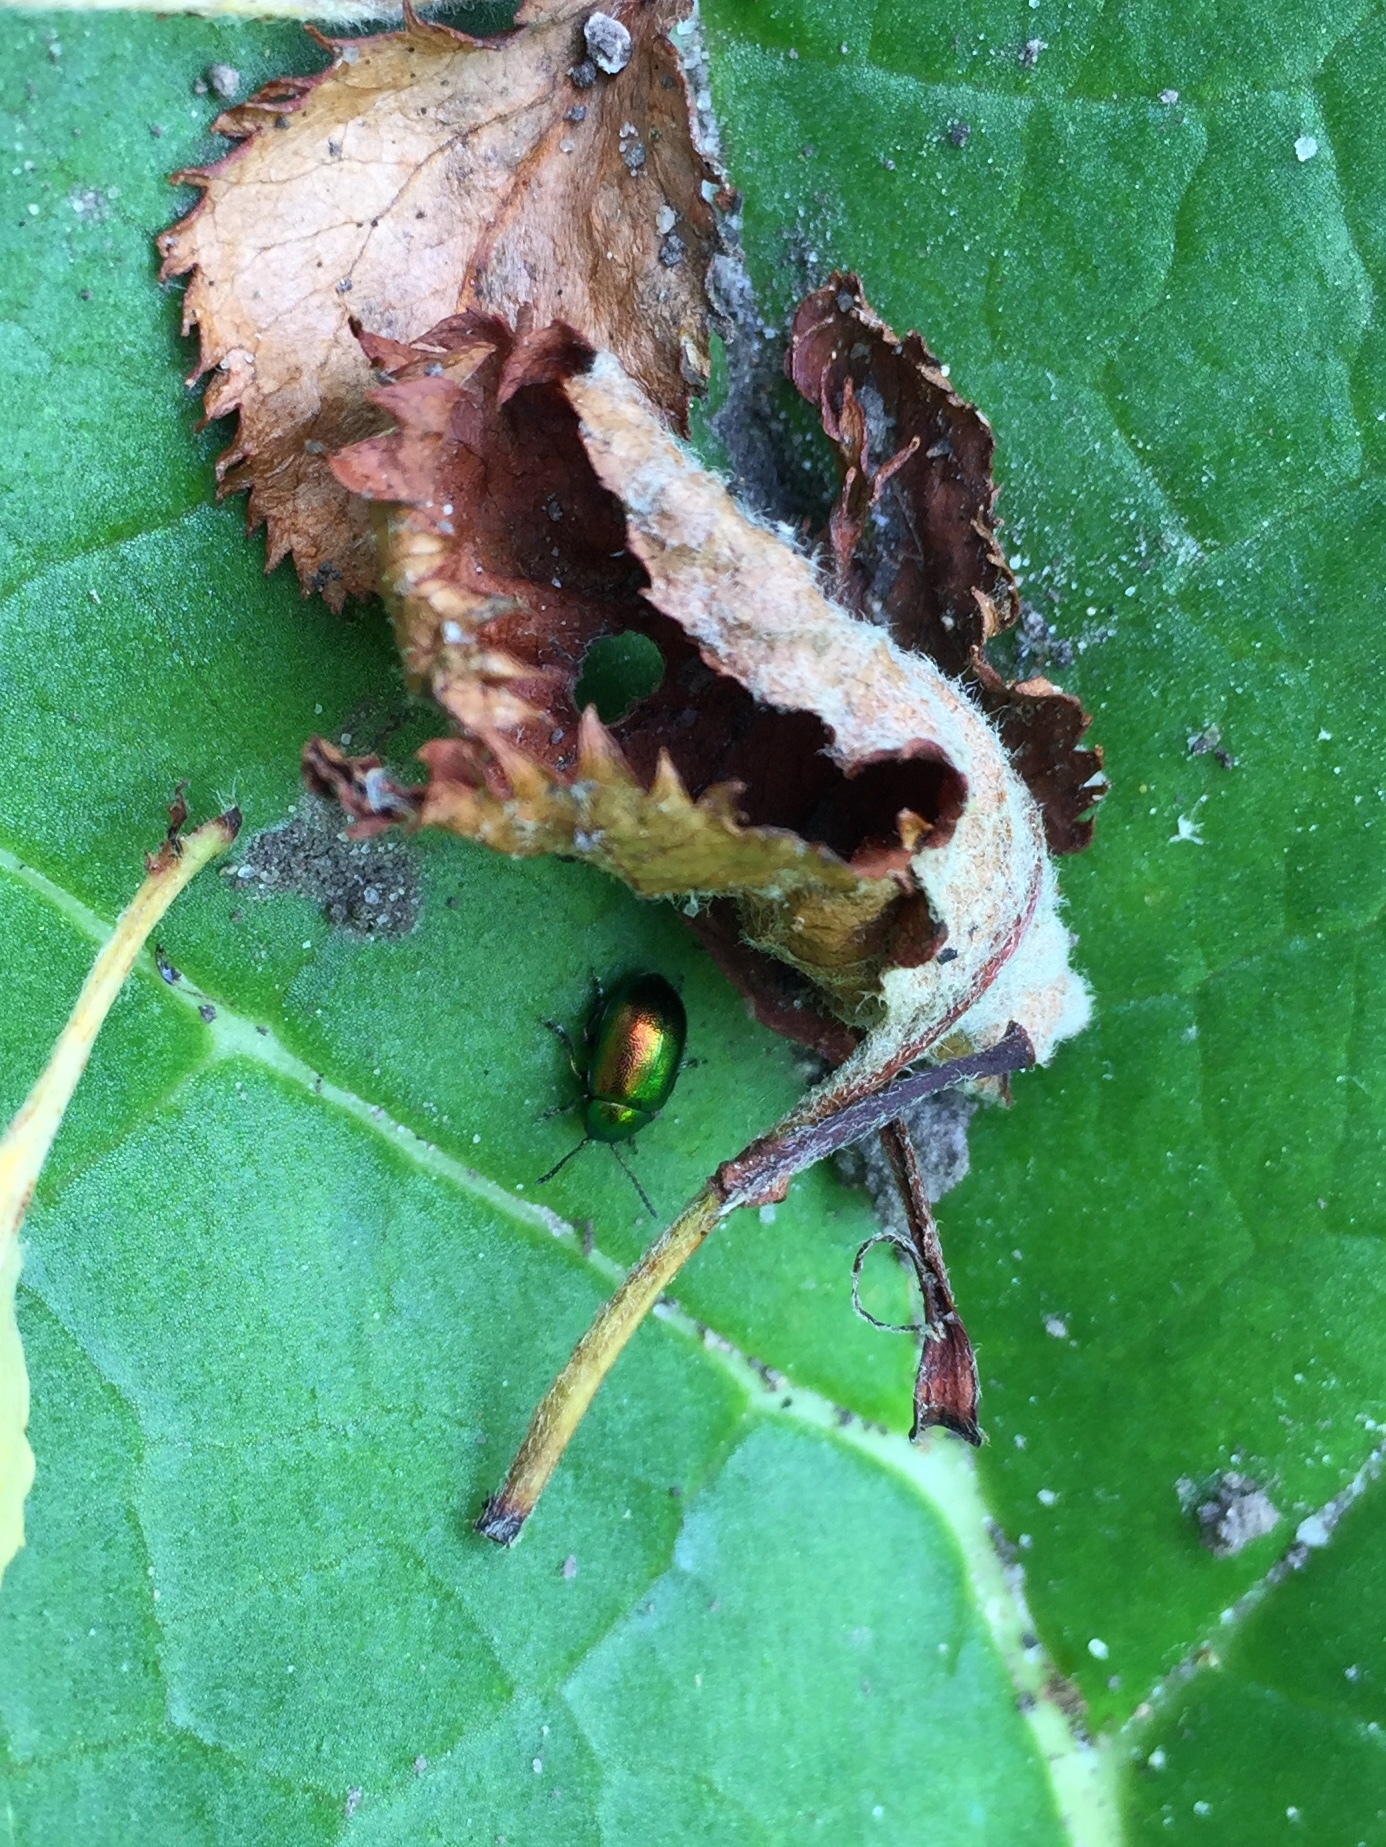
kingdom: Animalia
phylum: Arthropoda
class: Insecta
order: Coleoptera
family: Chrysomelidae
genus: Gastrophysa
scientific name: Gastrophysa viridula
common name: Green dock beetle
